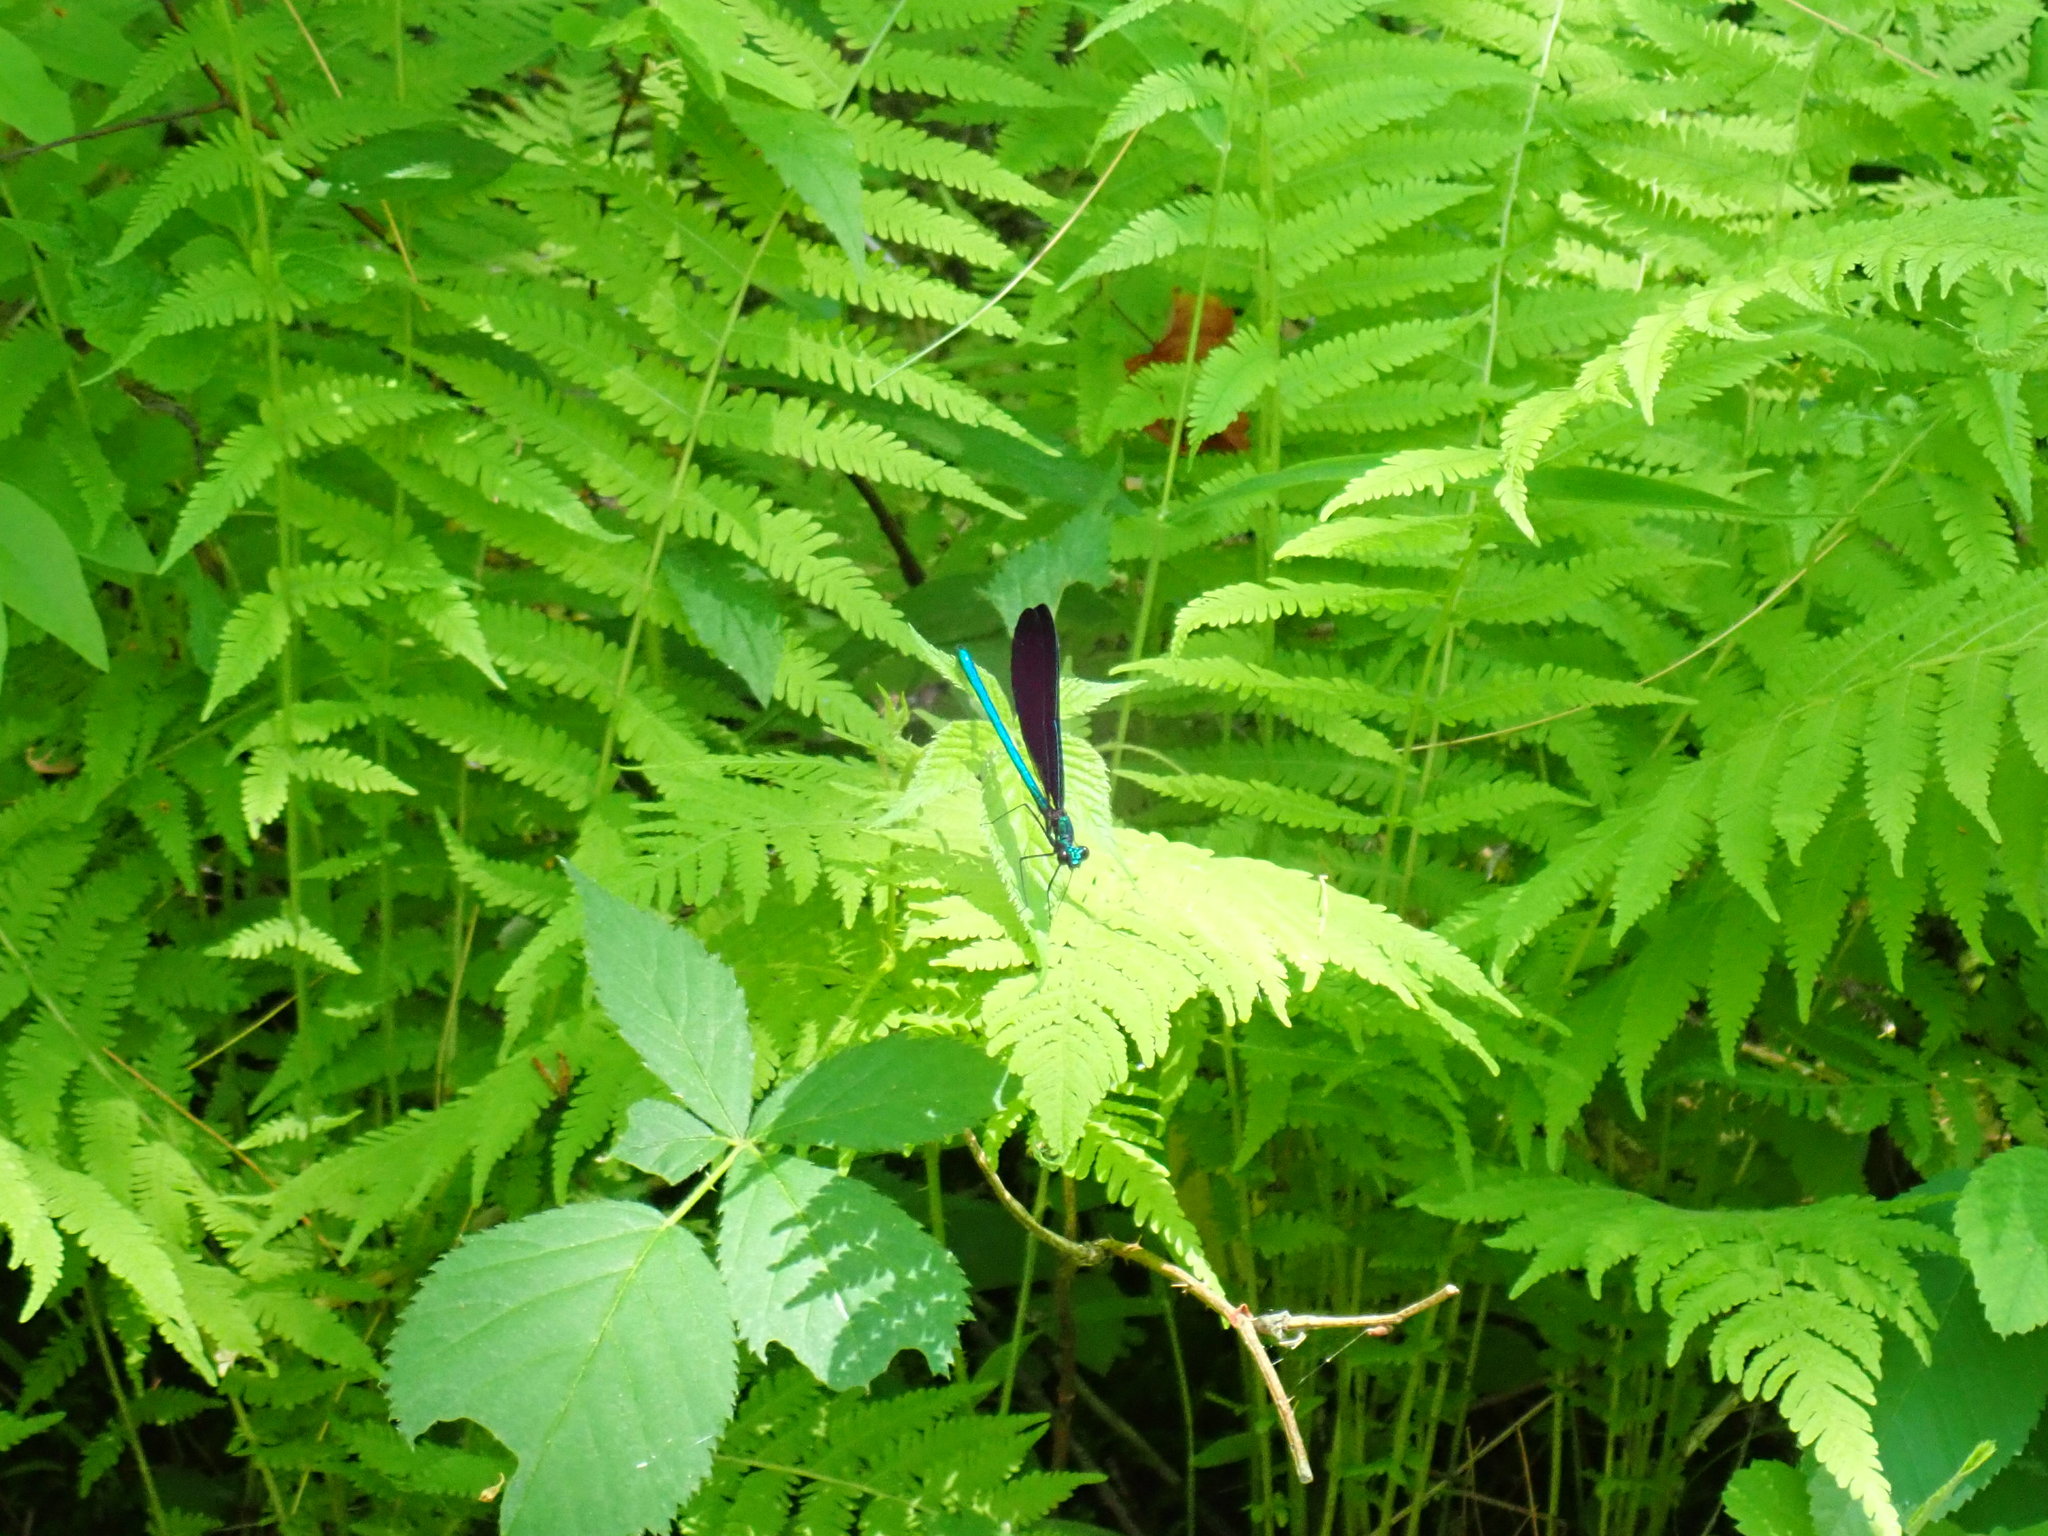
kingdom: Animalia
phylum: Arthropoda
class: Insecta
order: Odonata
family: Calopterygidae
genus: Calopteryx
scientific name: Calopteryx maculata
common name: Ebony jewelwing
